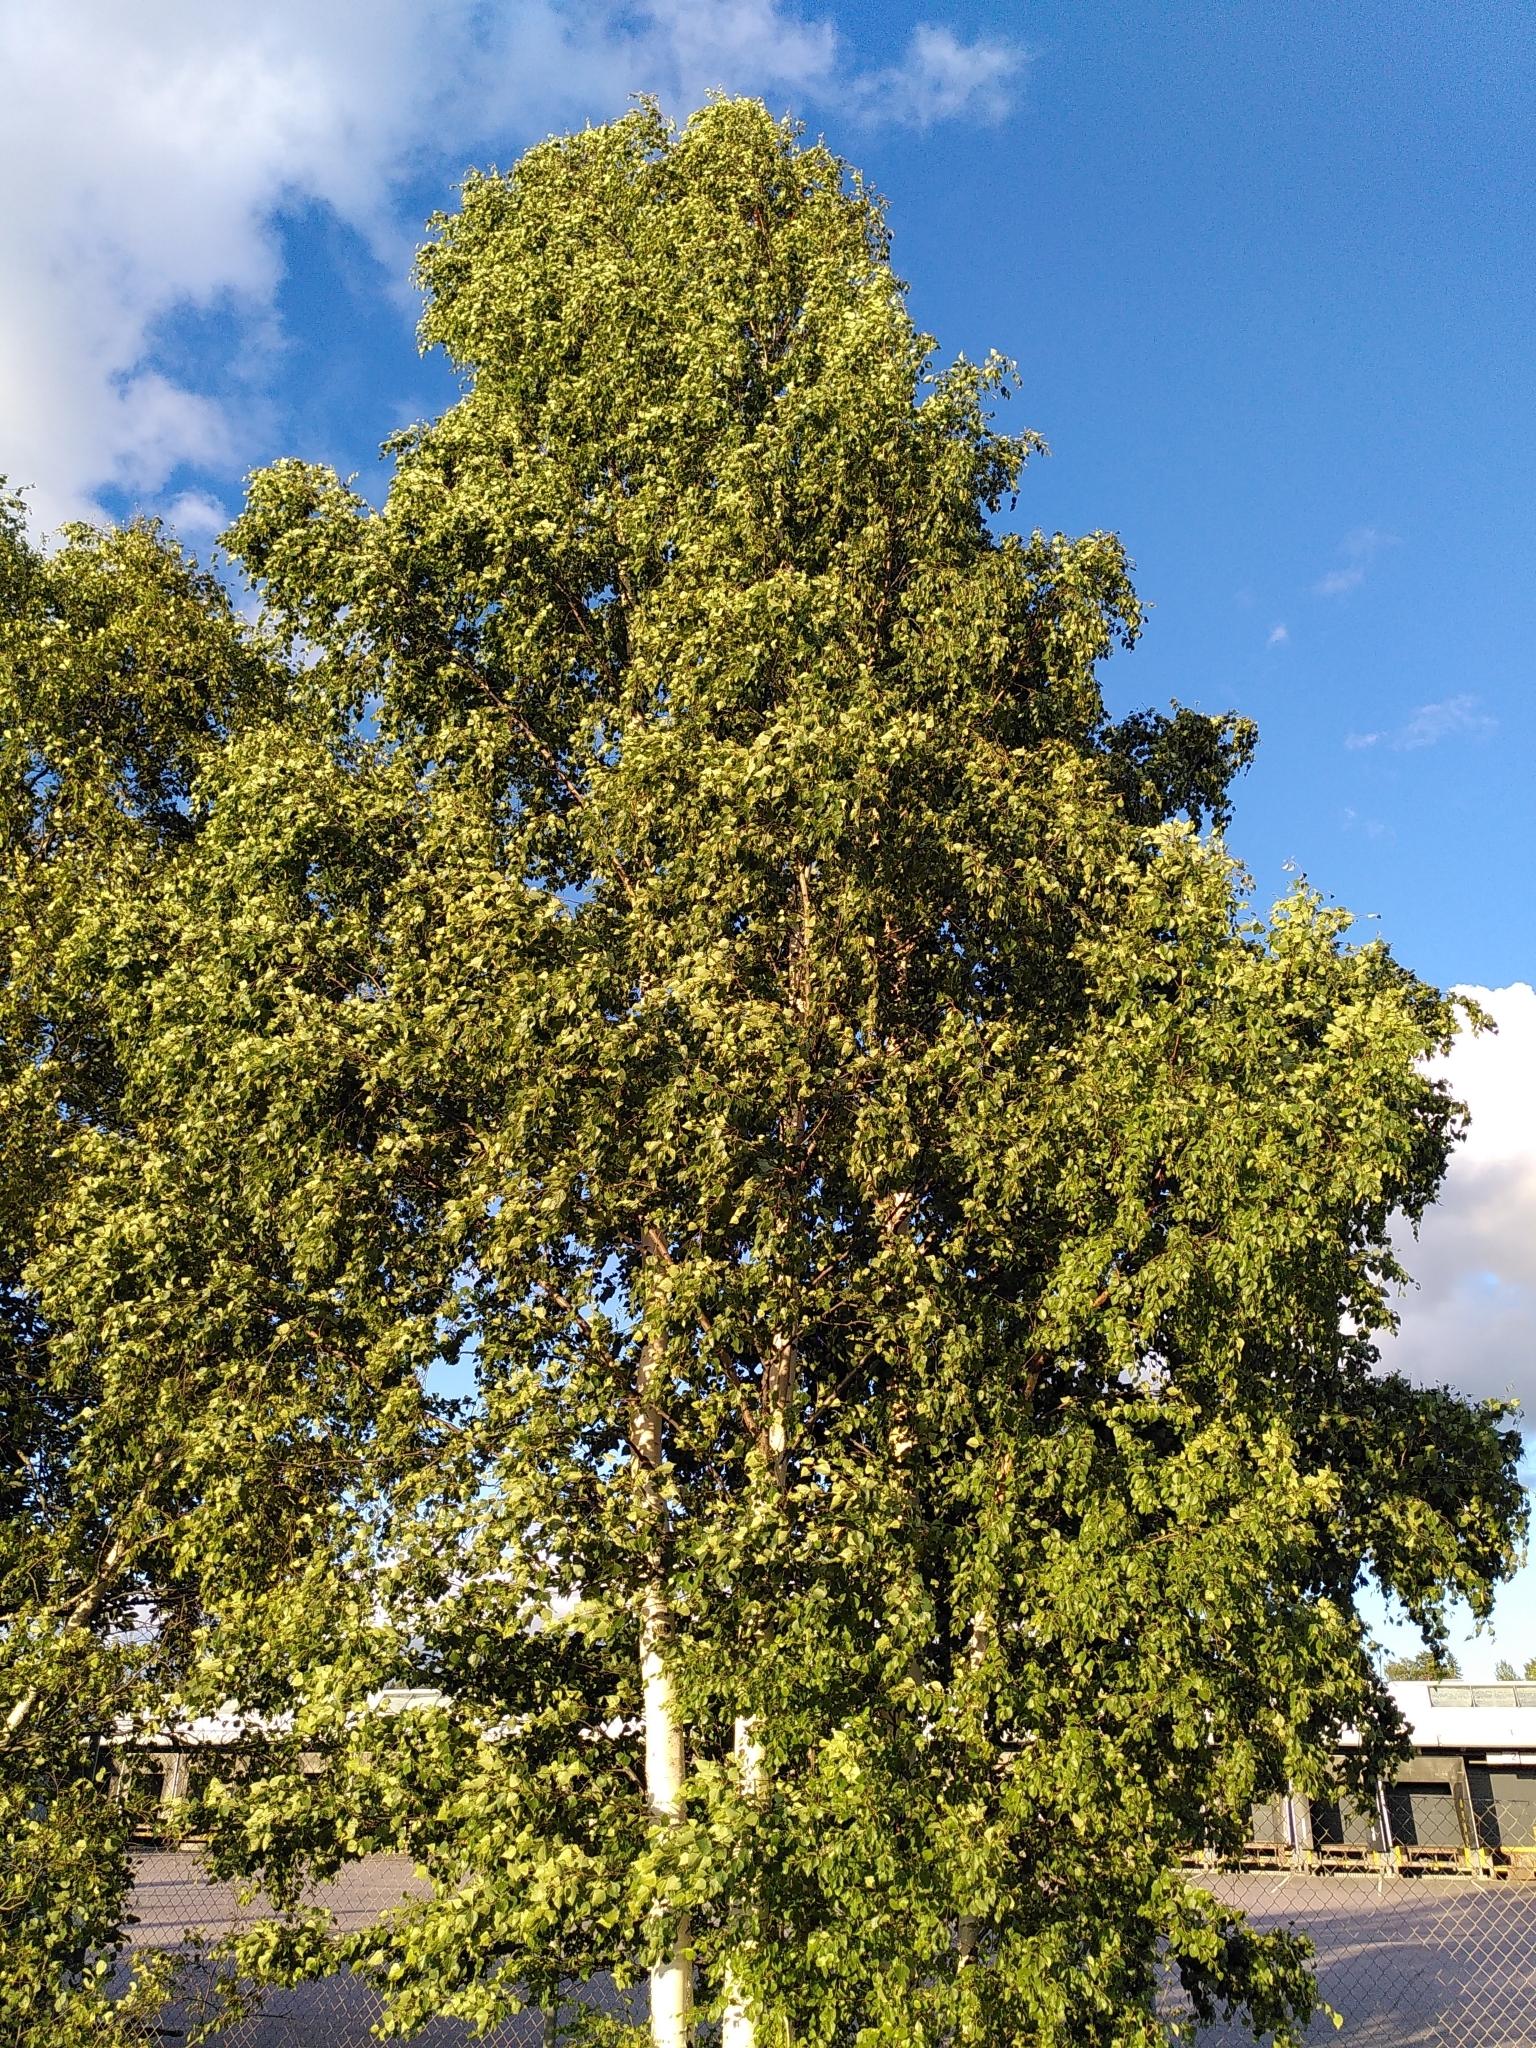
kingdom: Plantae
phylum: Tracheophyta
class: Magnoliopsida
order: Fagales
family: Betulaceae
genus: Betula
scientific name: Betula pendula
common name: Silver birch
